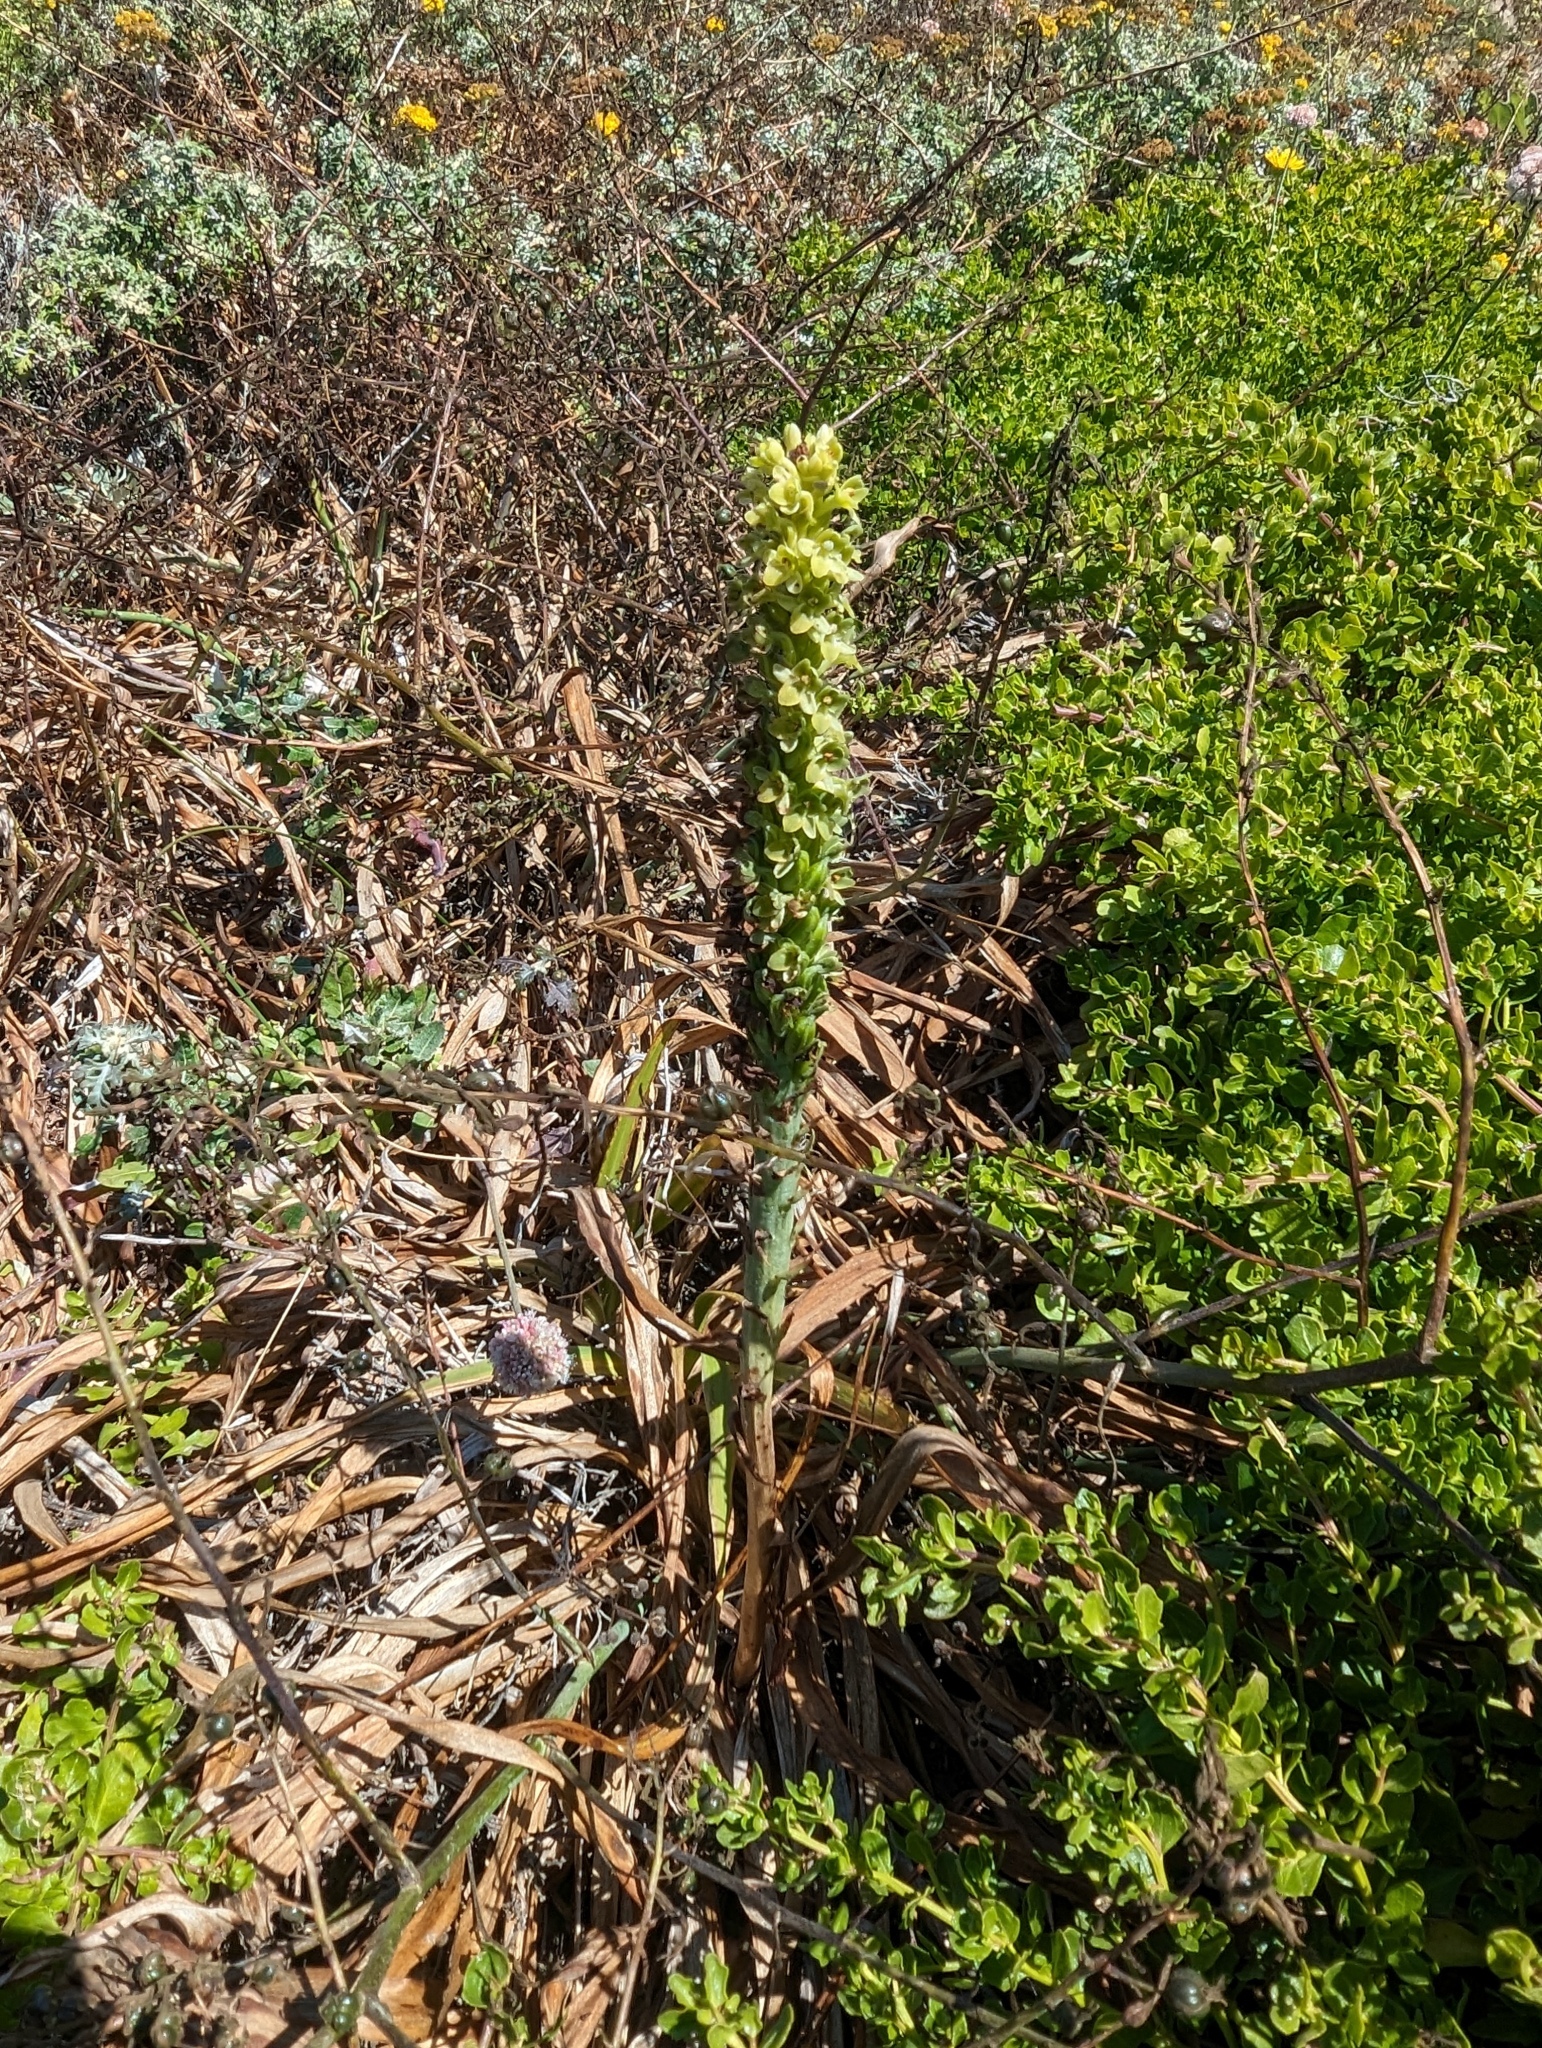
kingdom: Plantae
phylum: Tracheophyta
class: Liliopsida
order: Asparagales
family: Orchidaceae
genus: Platanthera
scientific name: Platanthera michaelii
